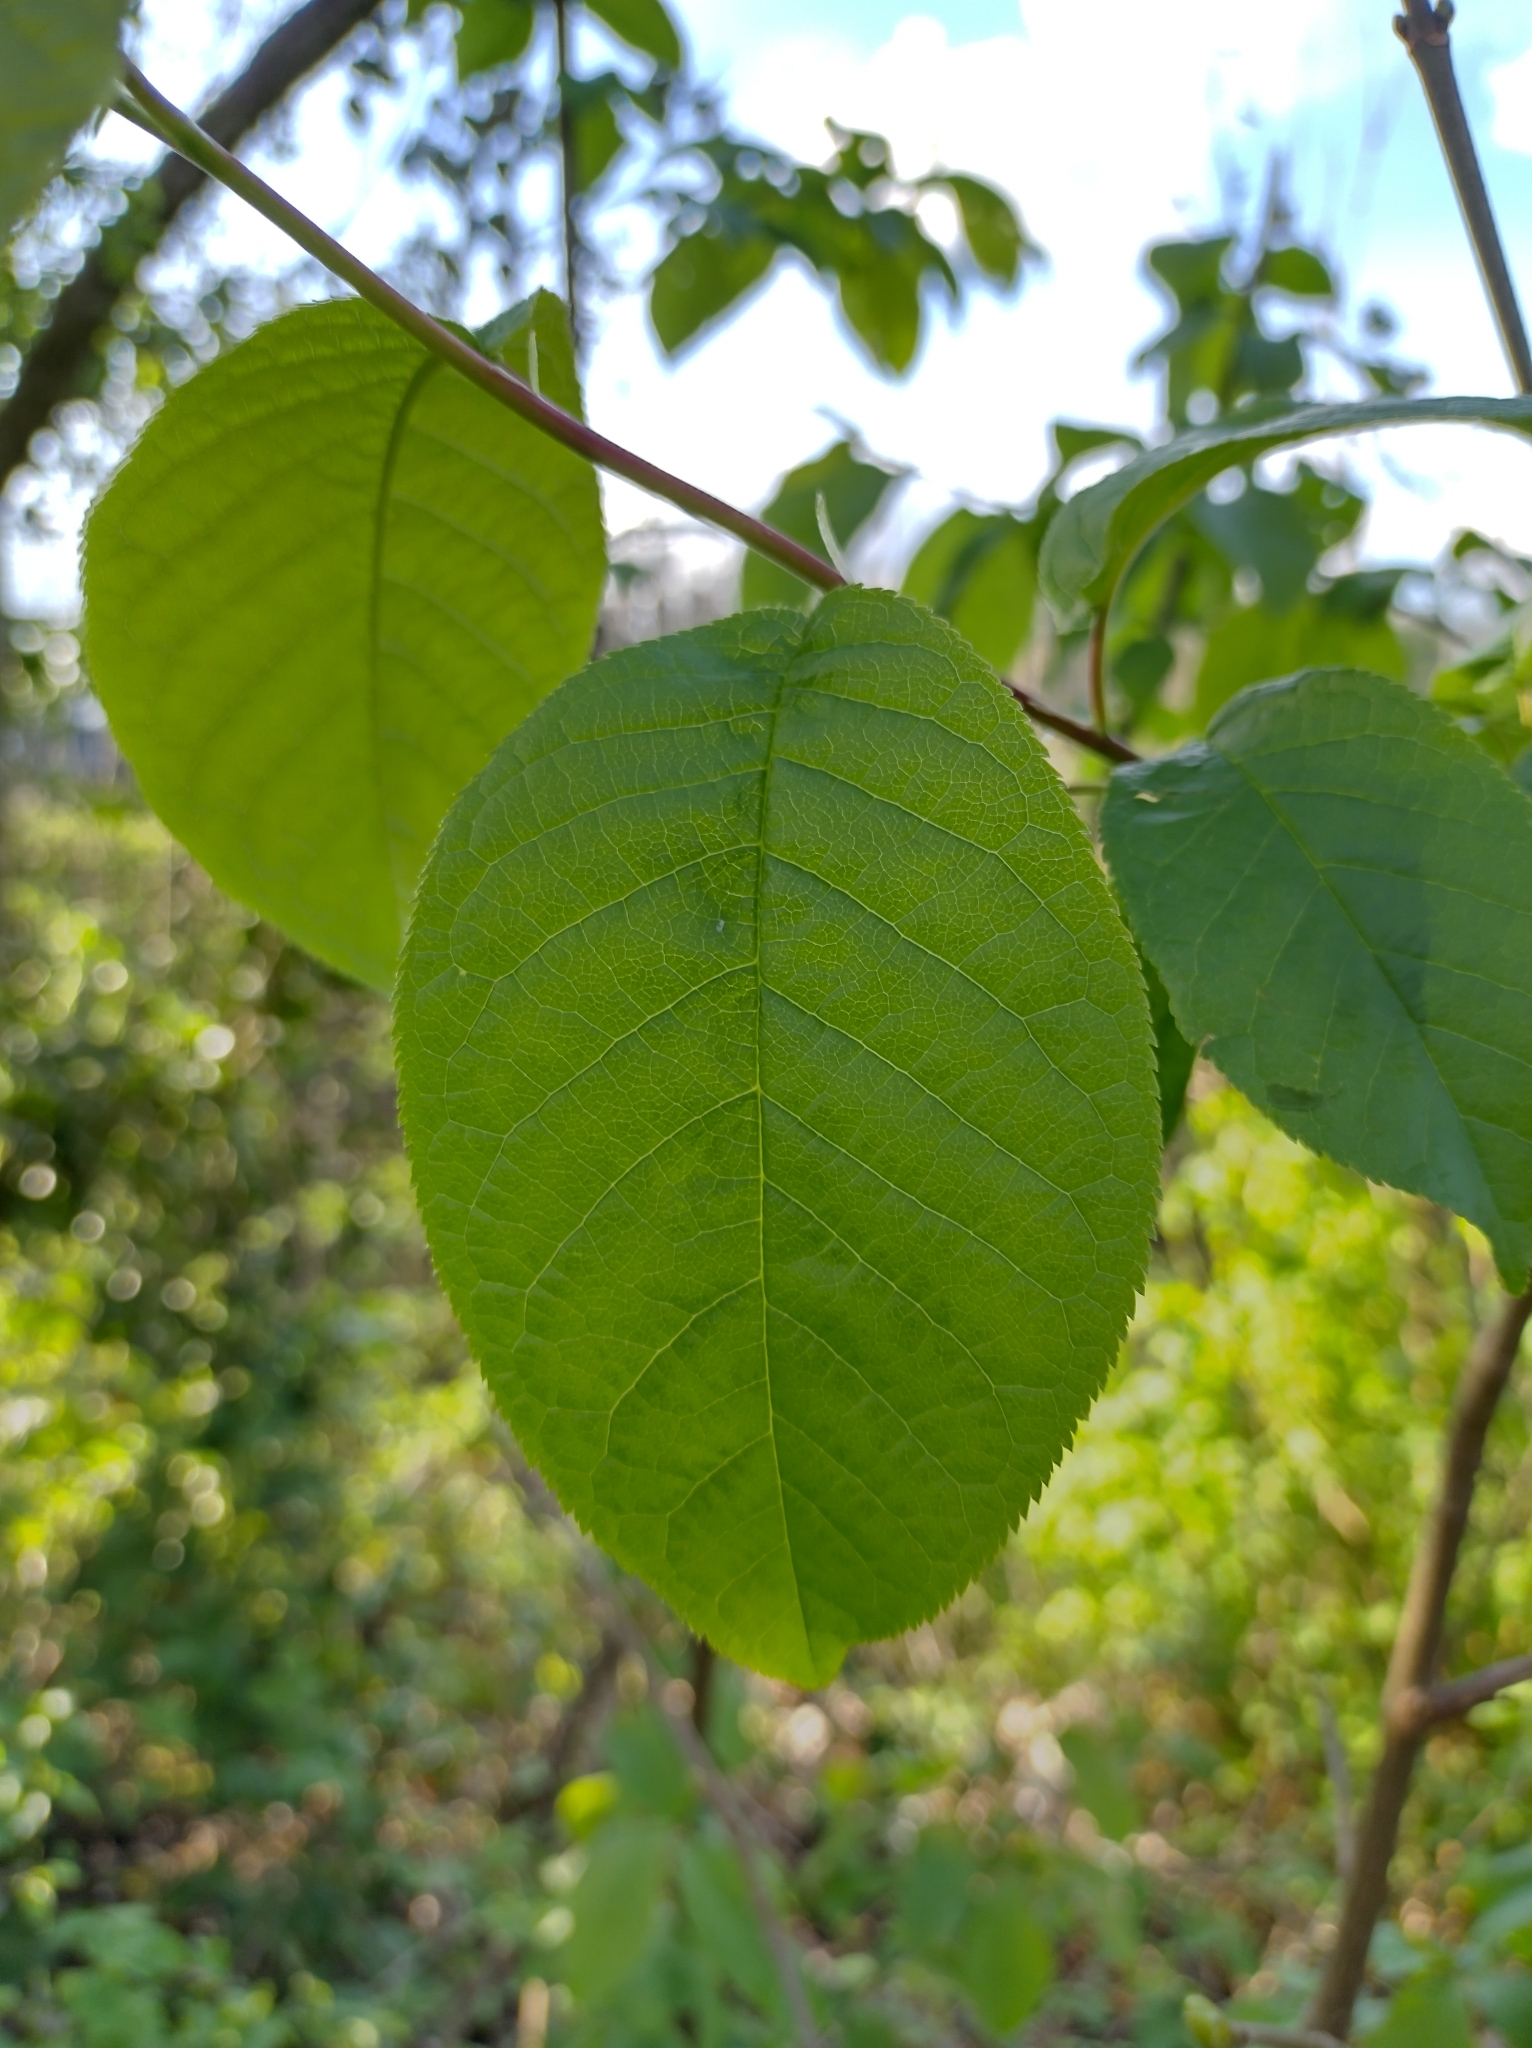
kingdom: Plantae
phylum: Tracheophyta
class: Magnoliopsida
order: Rosales
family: Rosaceae
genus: Prunus
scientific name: Prunus padus
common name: Bird cherry
